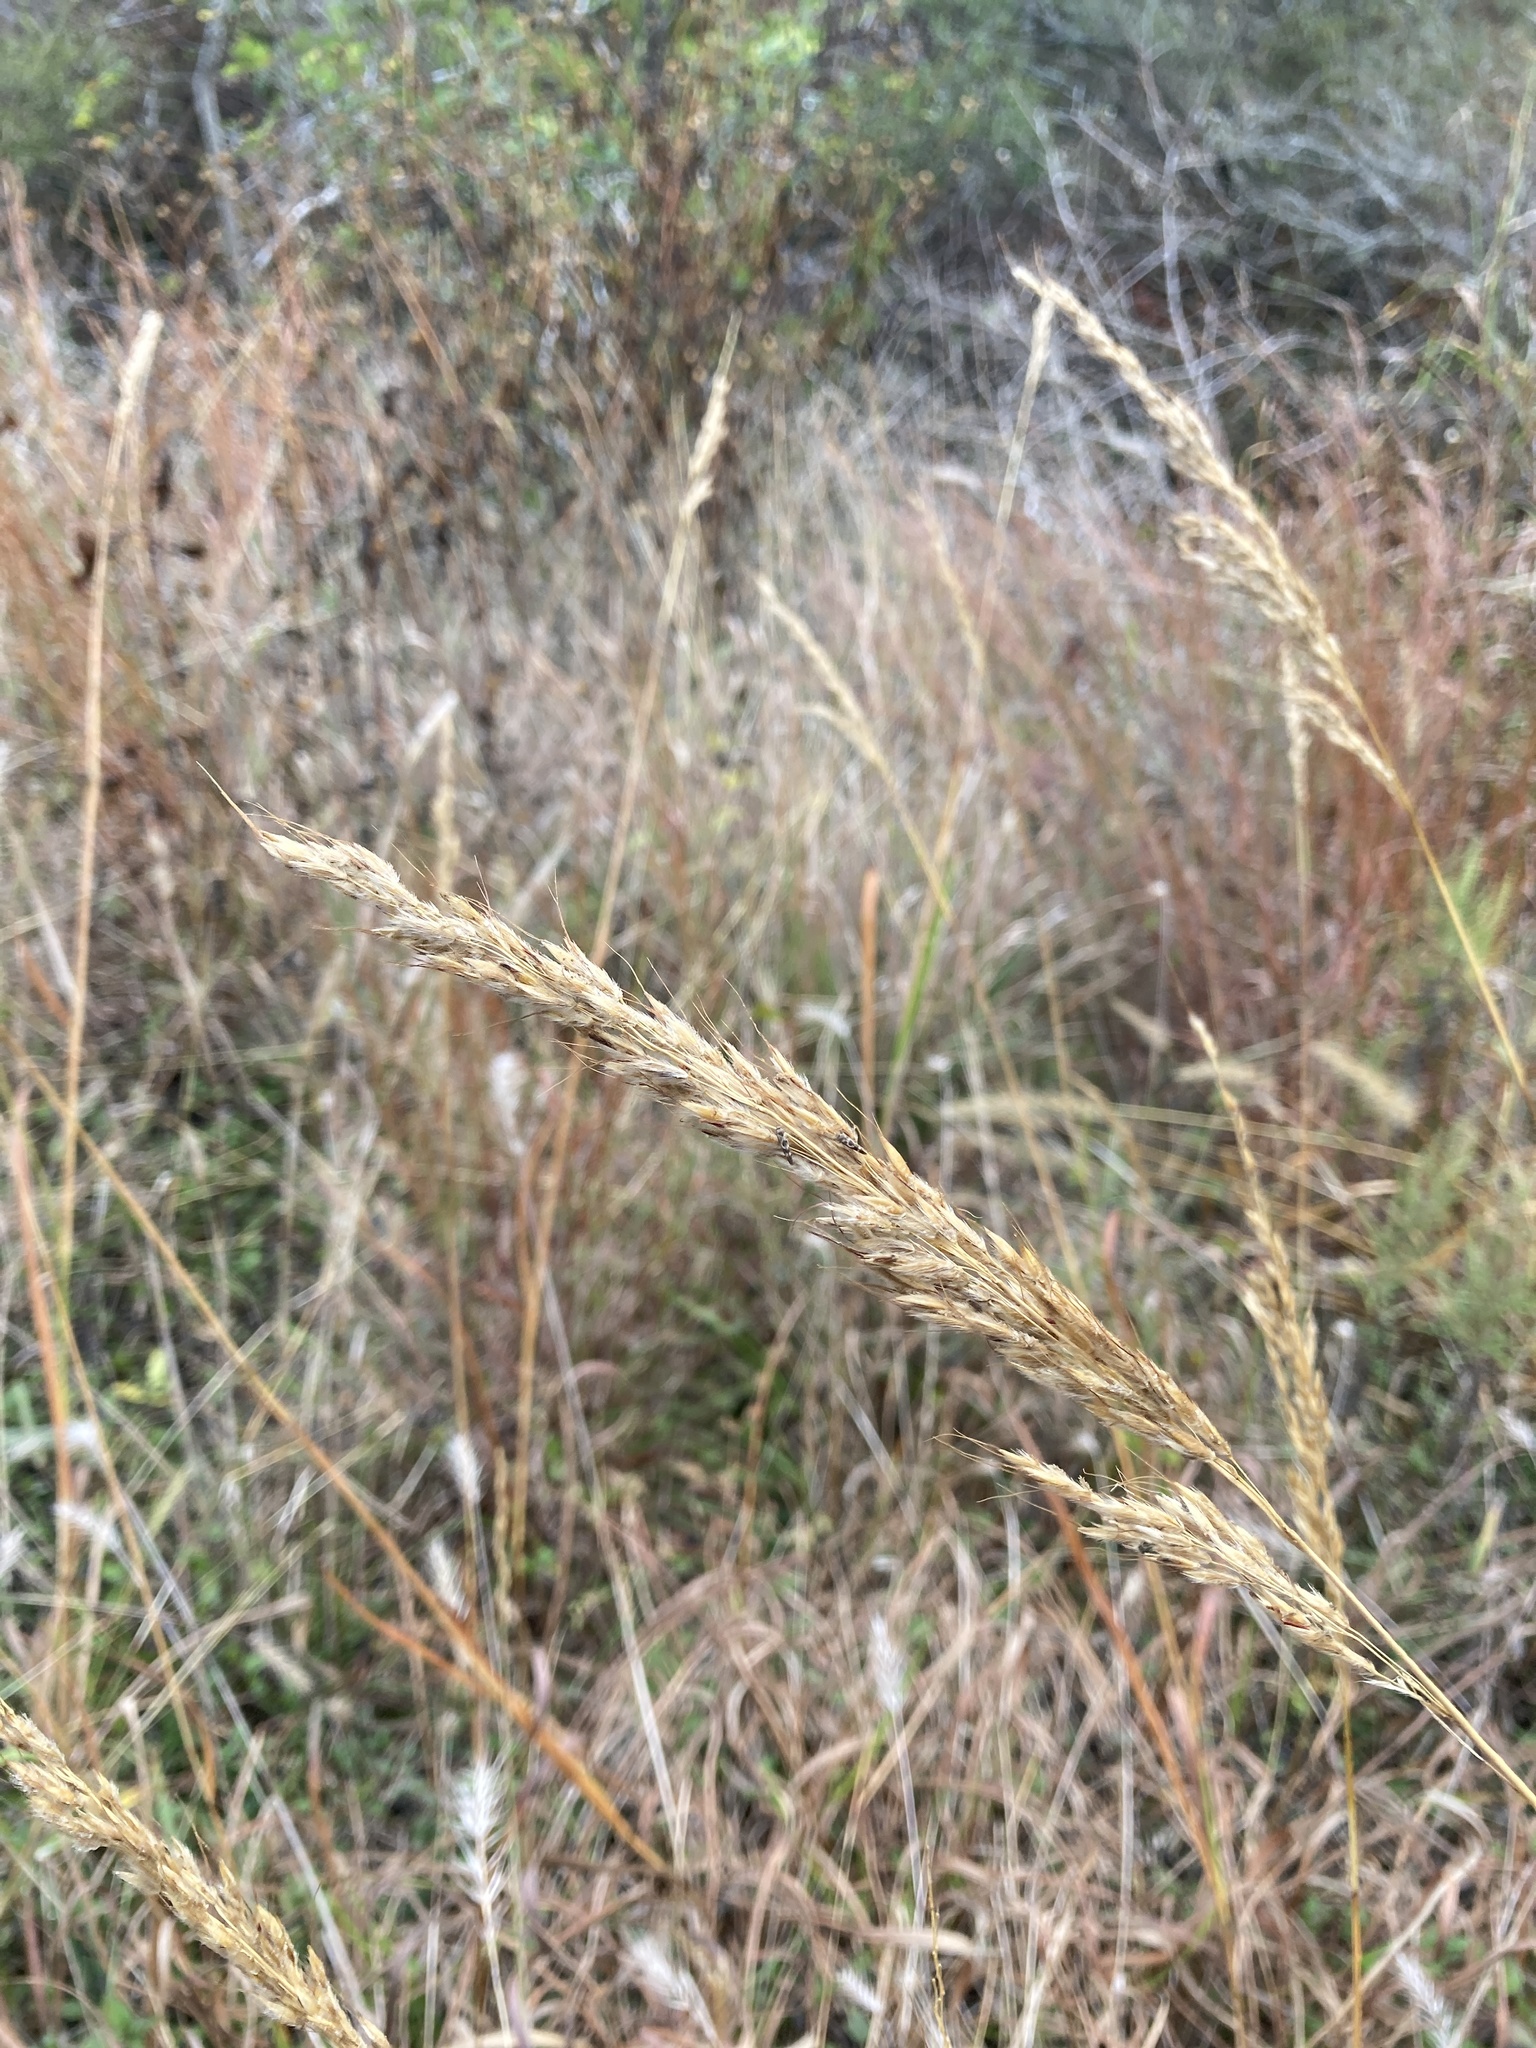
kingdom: Plantae
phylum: Tracheophyta
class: Liliopsida
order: Poales
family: Poaceae
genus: Sorghastrum
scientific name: Sorghastrum nutans
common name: Indian grass
